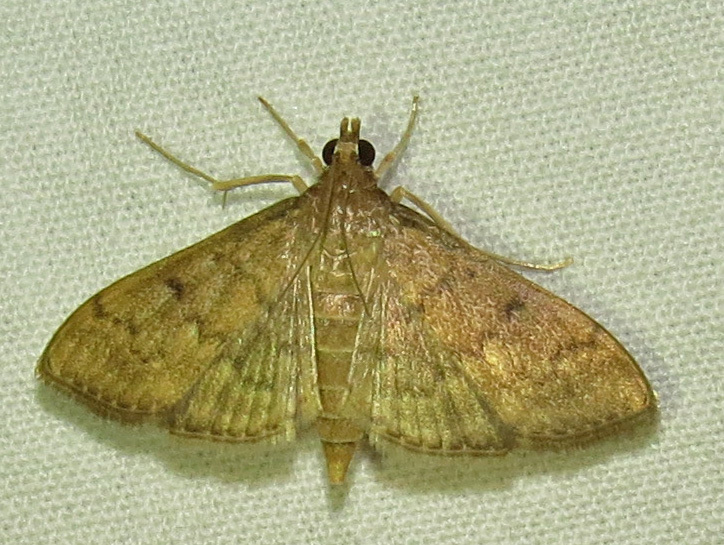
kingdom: Animalia
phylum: Arthropoda
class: Insecta
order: Lepidoptera
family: Crambidae
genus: Herpetogramma
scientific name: Herpetogramma phaeopteralis
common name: Dusky herpetogramma moth
